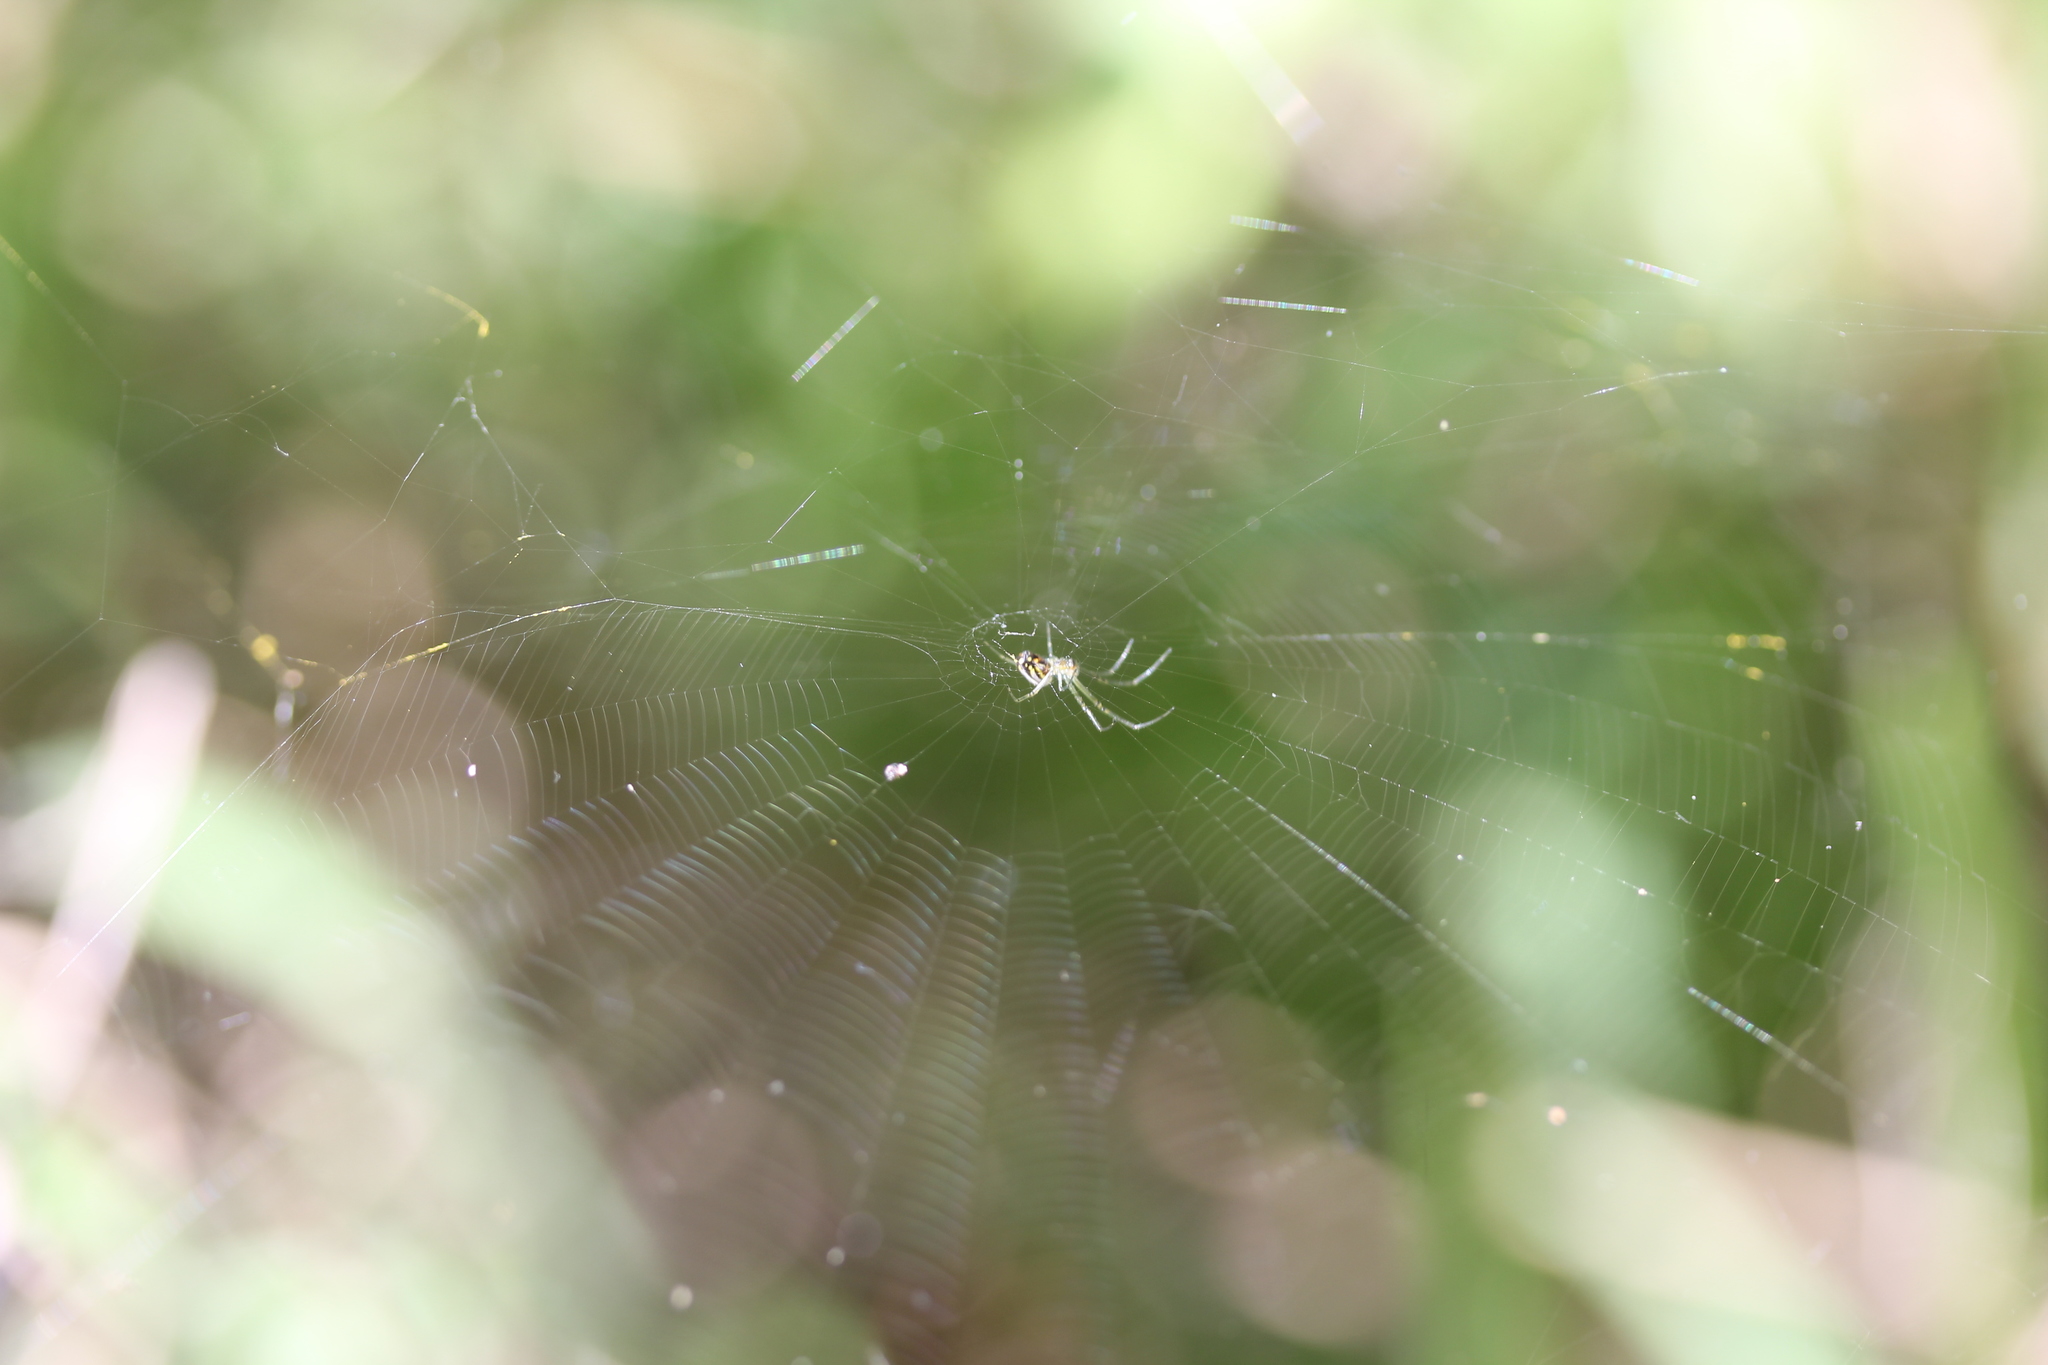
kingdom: Animalia
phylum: Arthropoda
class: Arachnida
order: Araneae
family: Tetragnathidae
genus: Leucauge
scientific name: Leucauge argyra
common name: Longjawed orb weavers
